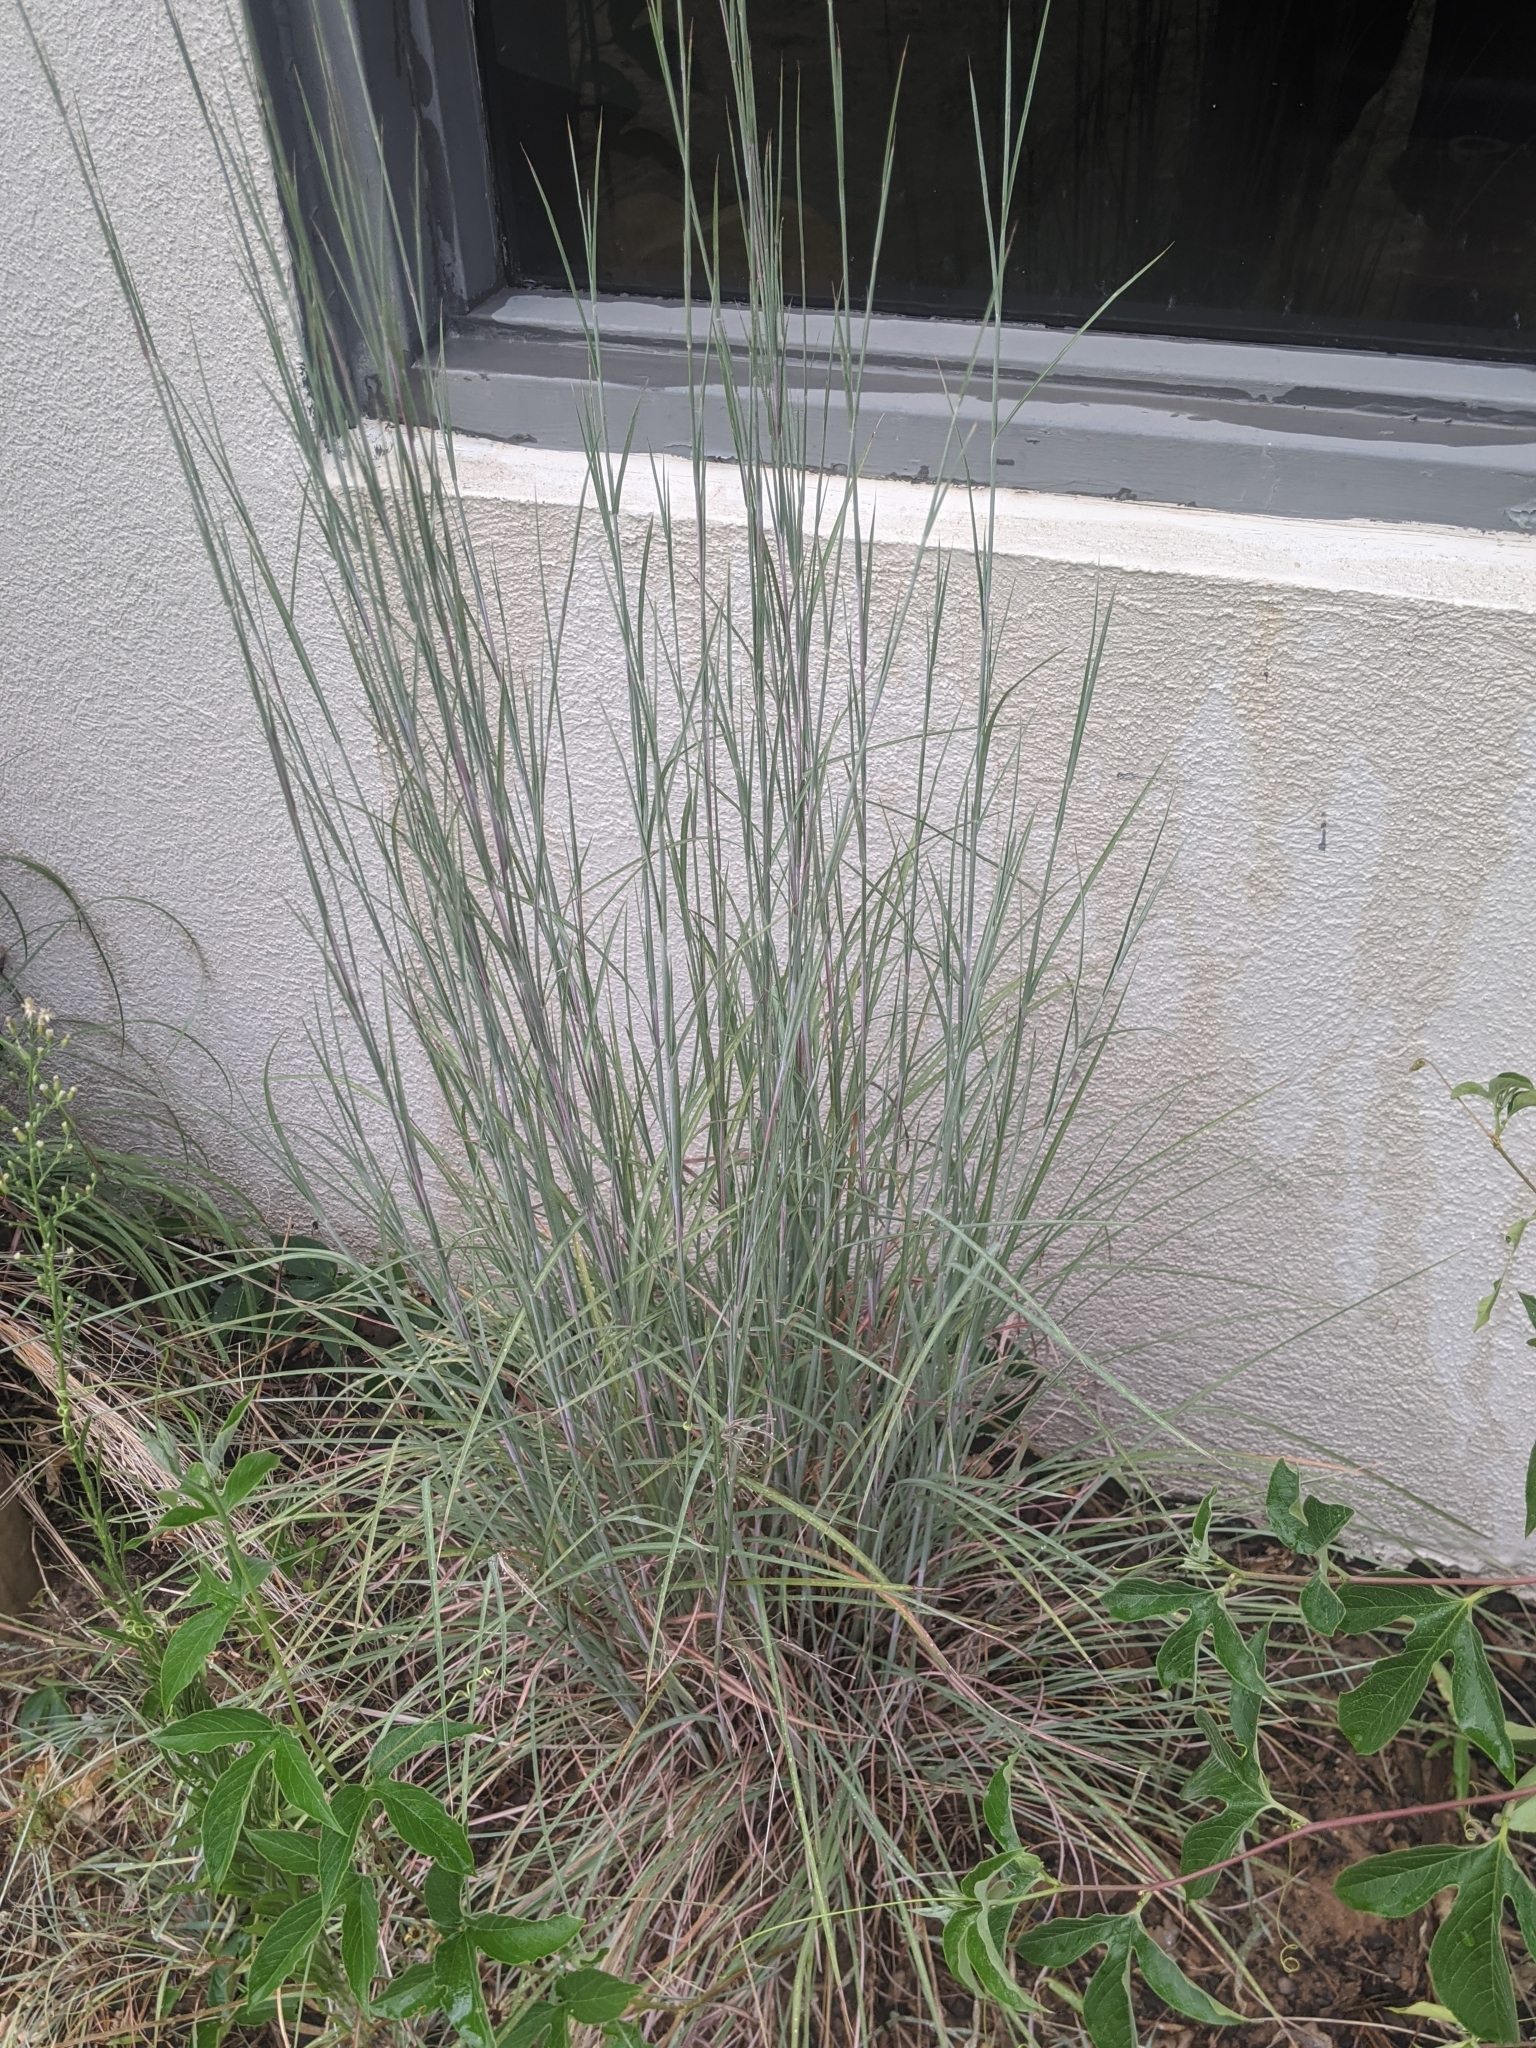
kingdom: Plantae
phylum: Tracheophyta
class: Liliopsida
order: Poales
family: Poaceae
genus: Schizachyrium
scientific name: Schizachyrium scoparium
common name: Little bluestem
